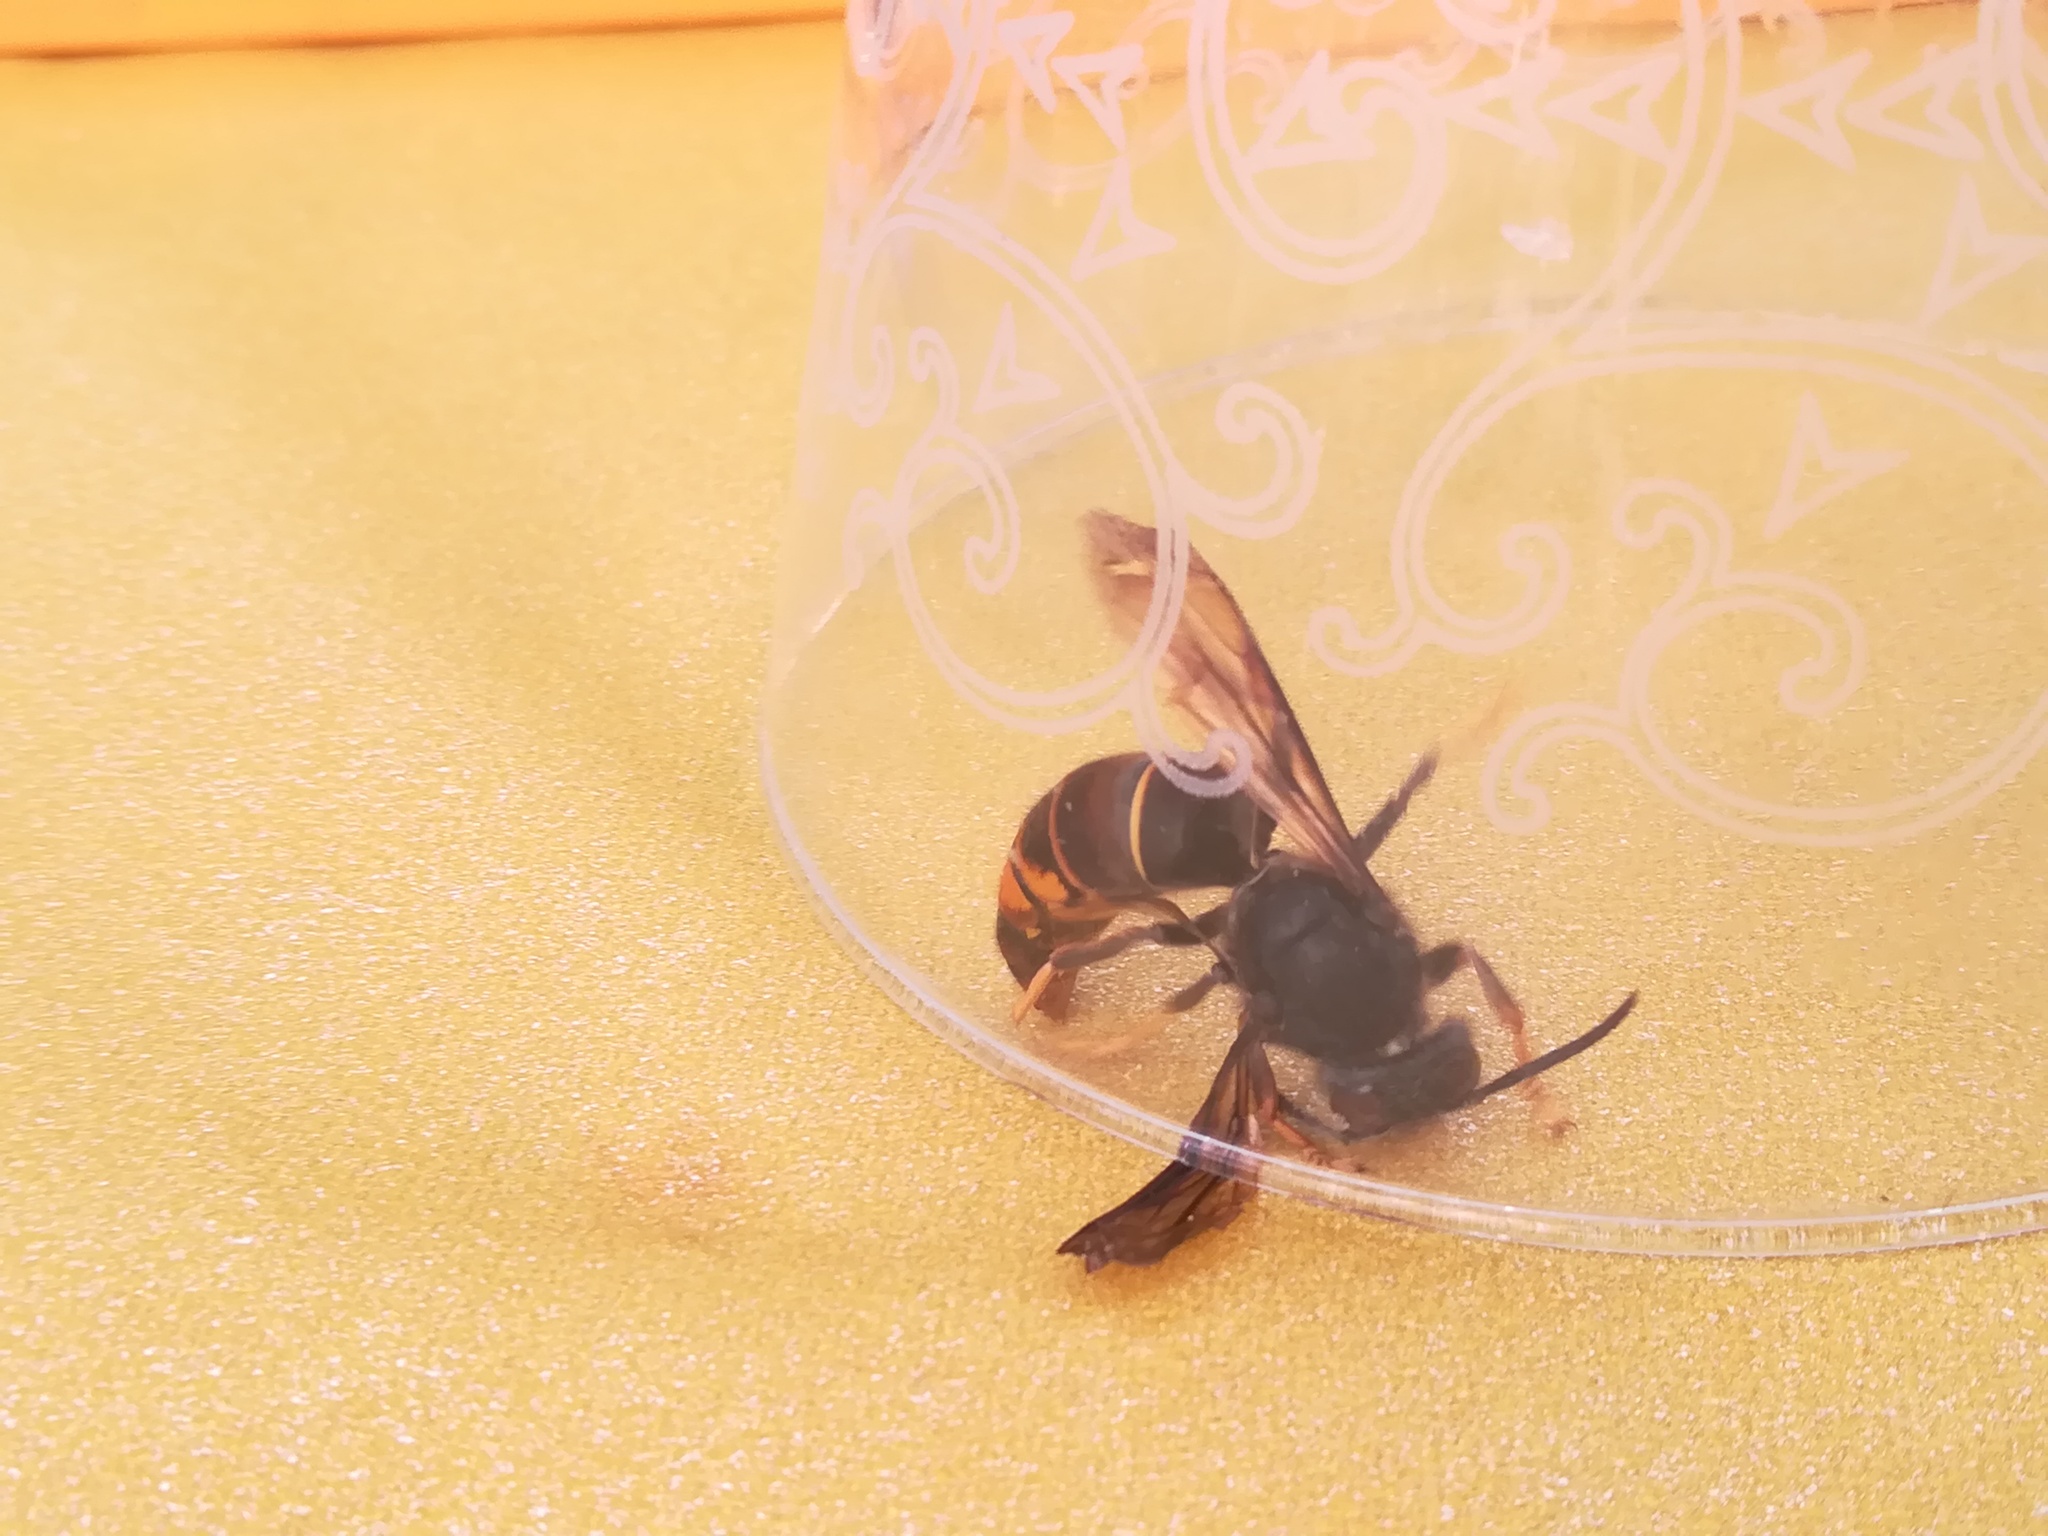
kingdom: Animalia
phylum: Arthropoda
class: Insecta
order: Hymenoptera
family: Vespidae
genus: Vespa
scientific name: Vespa velutina
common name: Asian hornet
